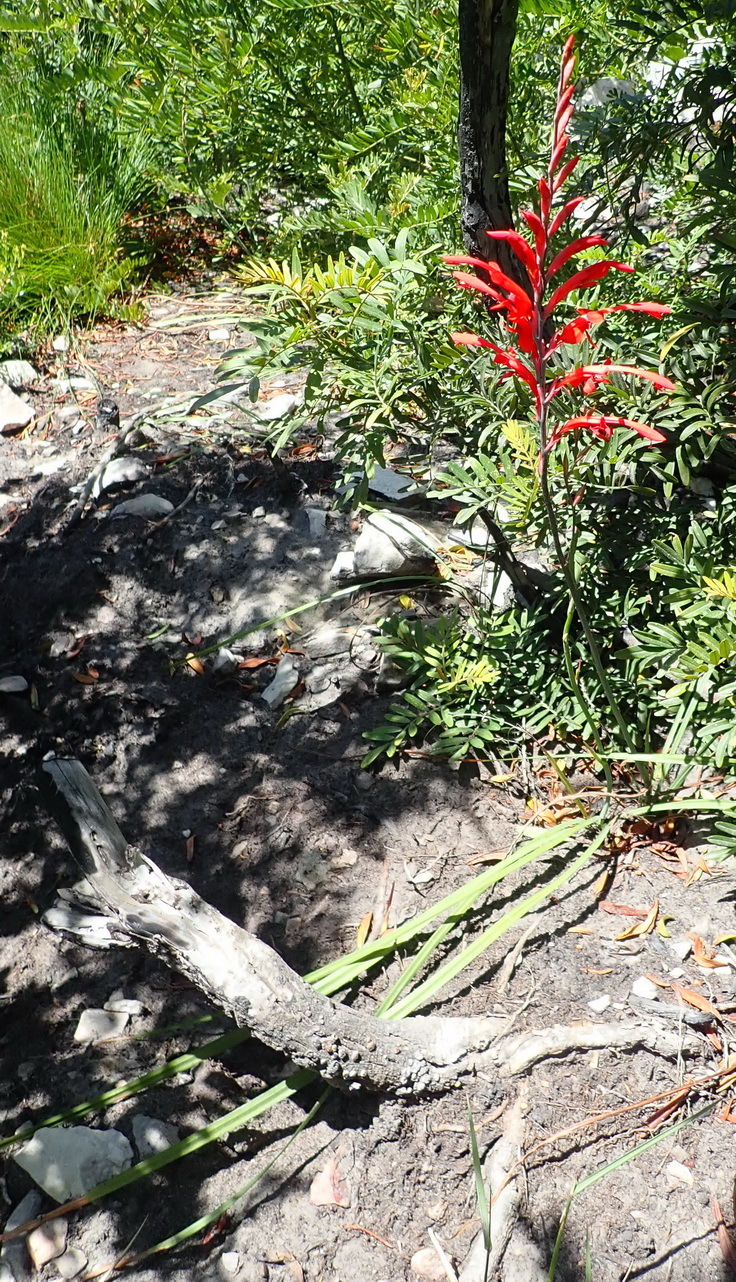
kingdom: Plantae
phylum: Tracheophyta
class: Liliopsida
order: Asparagales
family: Iridaceae
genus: Tritoniopsis
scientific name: Tritoniopsis caffra
